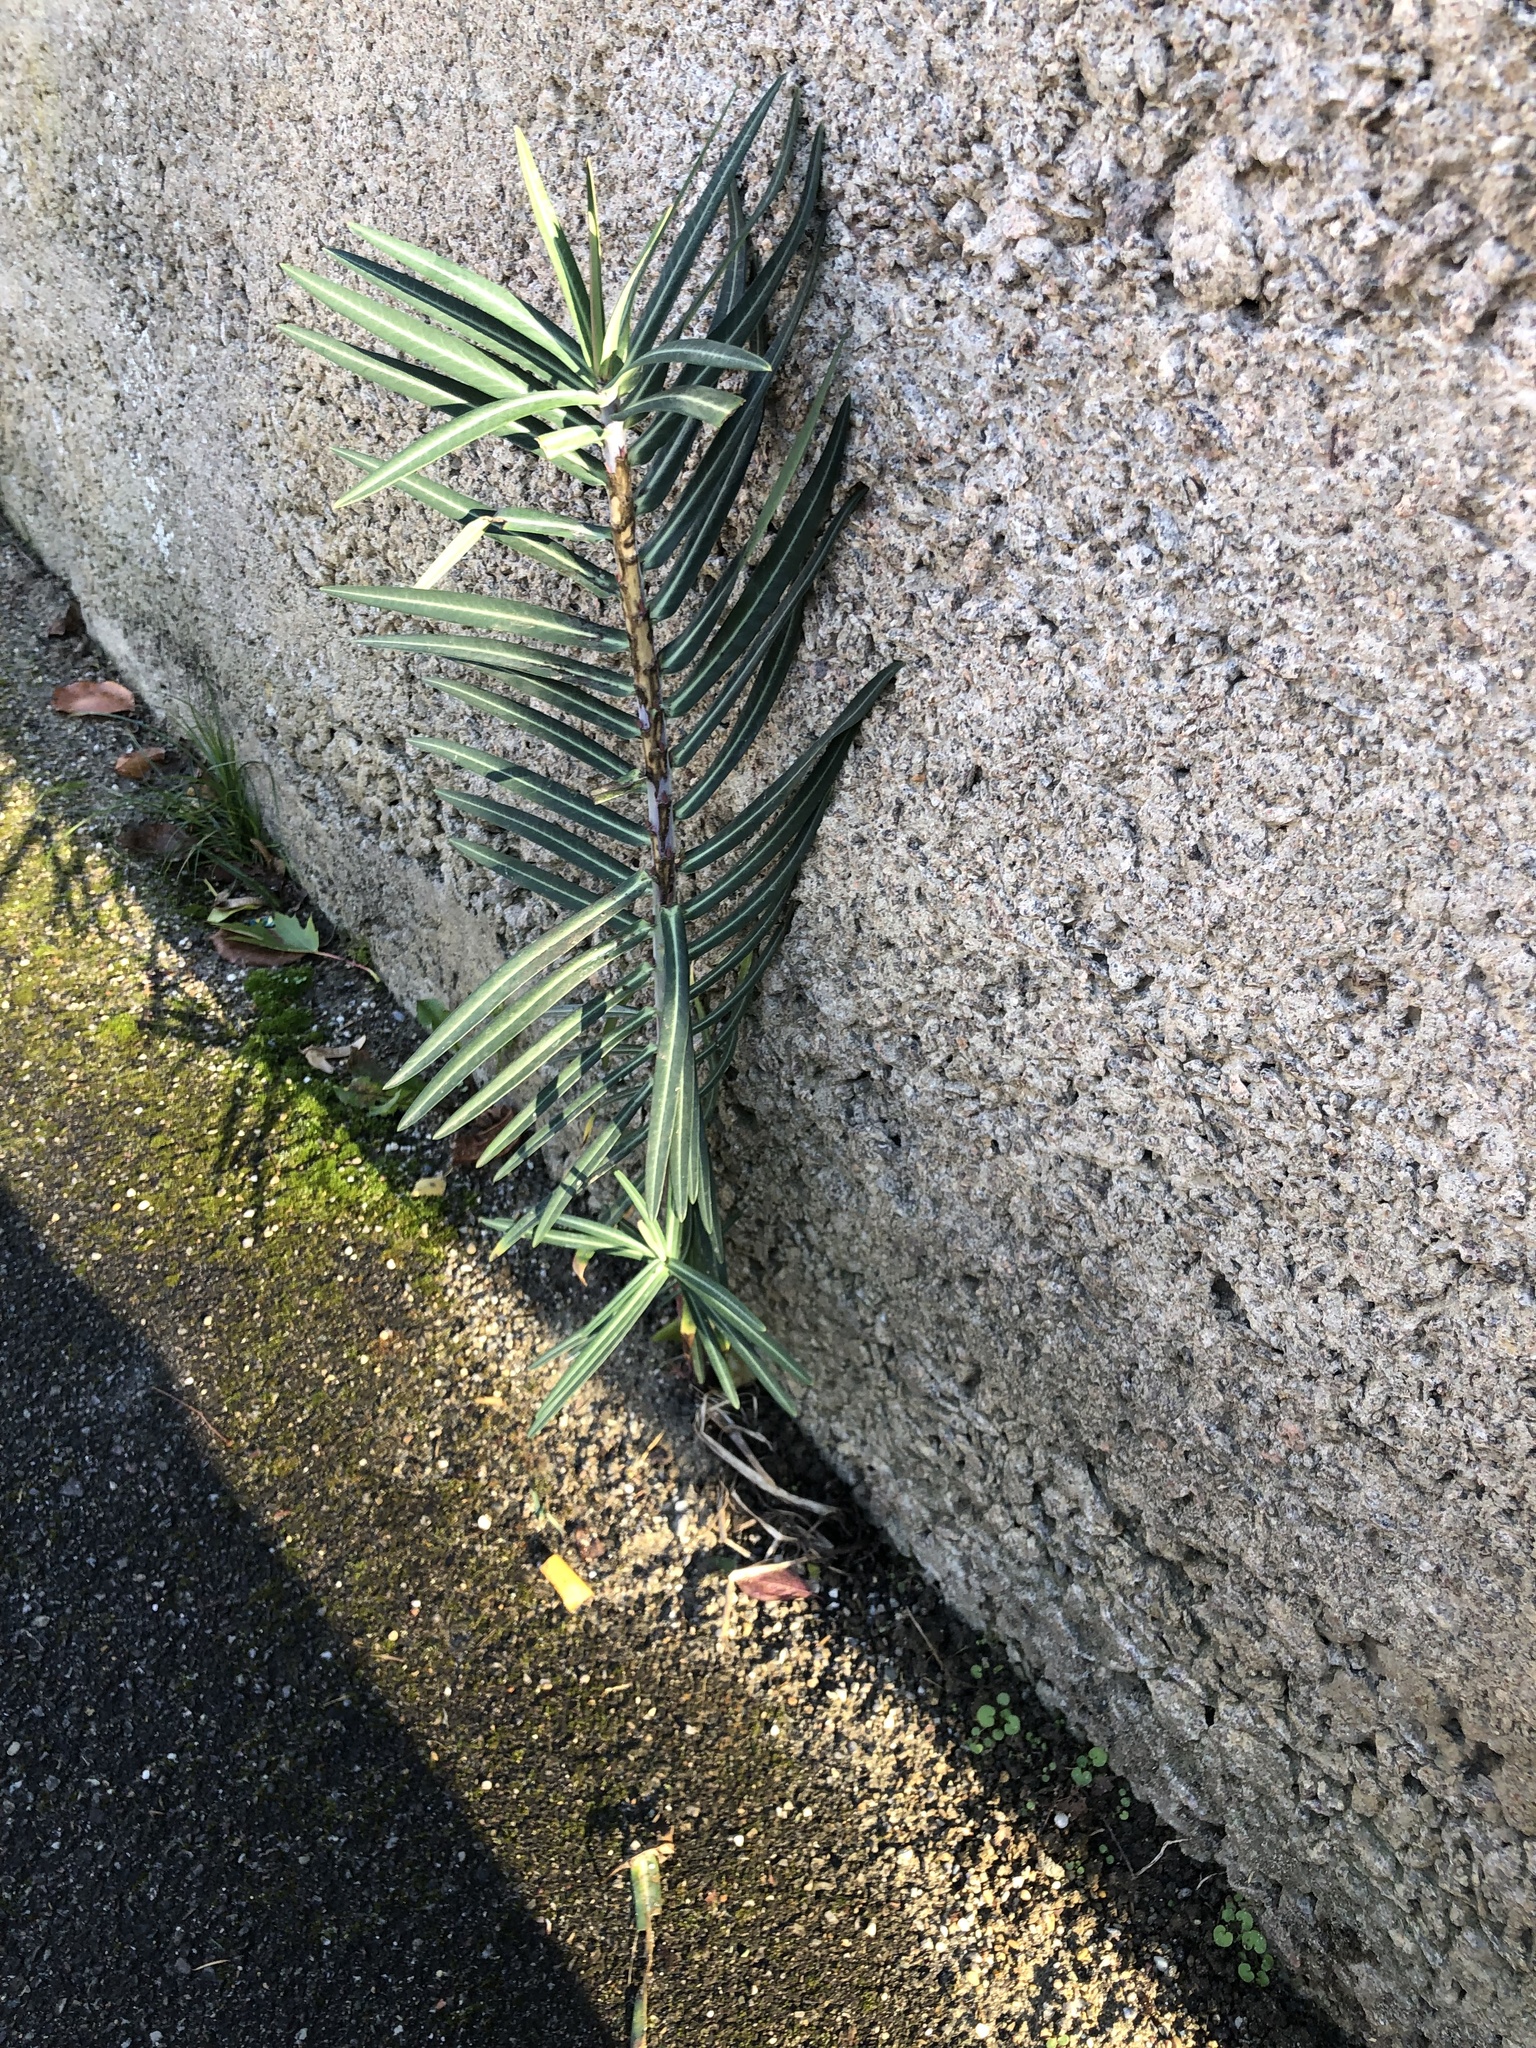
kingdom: Plantae
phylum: Tracheophyta
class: Magnoliopsida
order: Malpighiales
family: Euphorbiaceae
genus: Euphorbia
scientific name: Euphorbia lathyris
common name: Caper spurge
